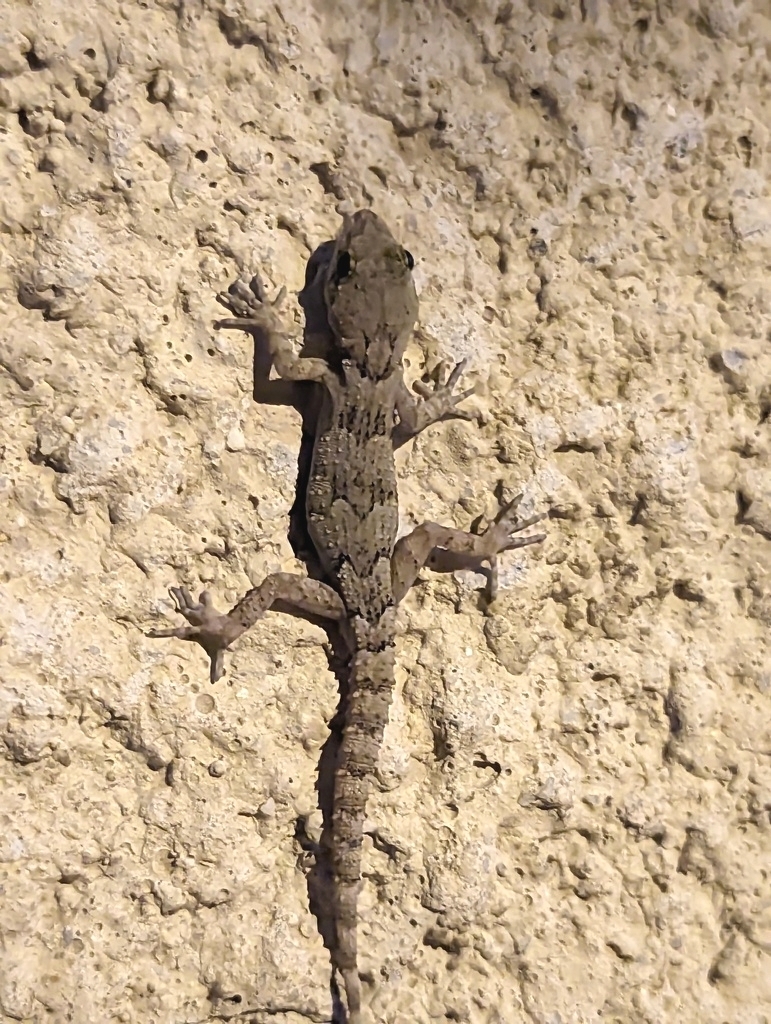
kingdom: Animalia
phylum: Chordata
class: Squamata
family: Gekkonidae
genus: Mediodactylus
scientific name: Mediodactylus danilewskii
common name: Bulgarian bent-toed gecko
